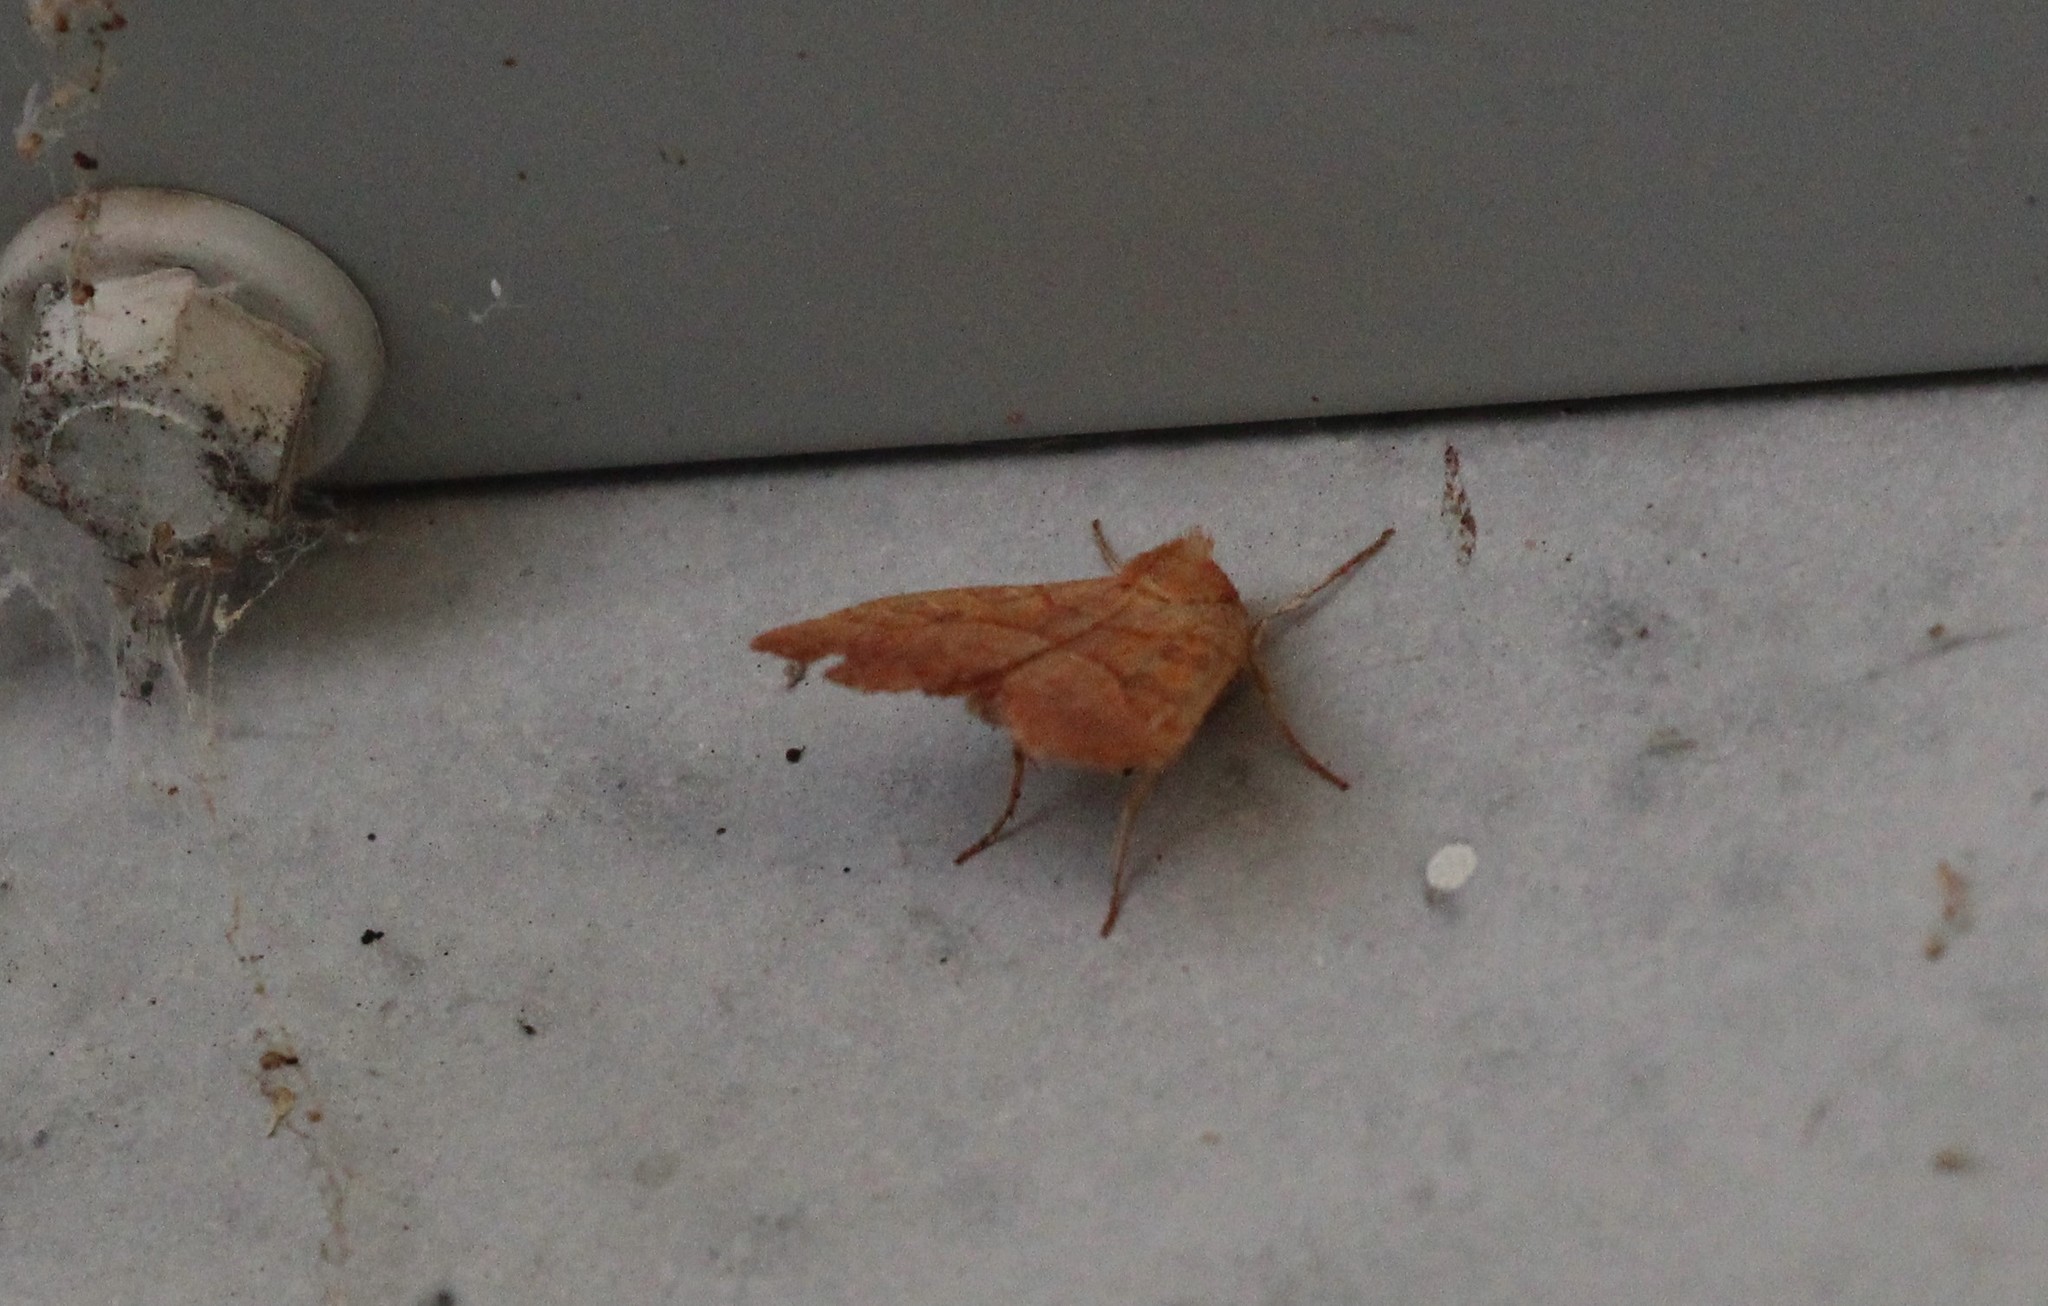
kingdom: Animalia
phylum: Arthropoda
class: Insecta
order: Lepidoptera
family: Noctuidae
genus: Eucirroedia
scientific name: Eucirroedia pampina
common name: Scalloped sallow
